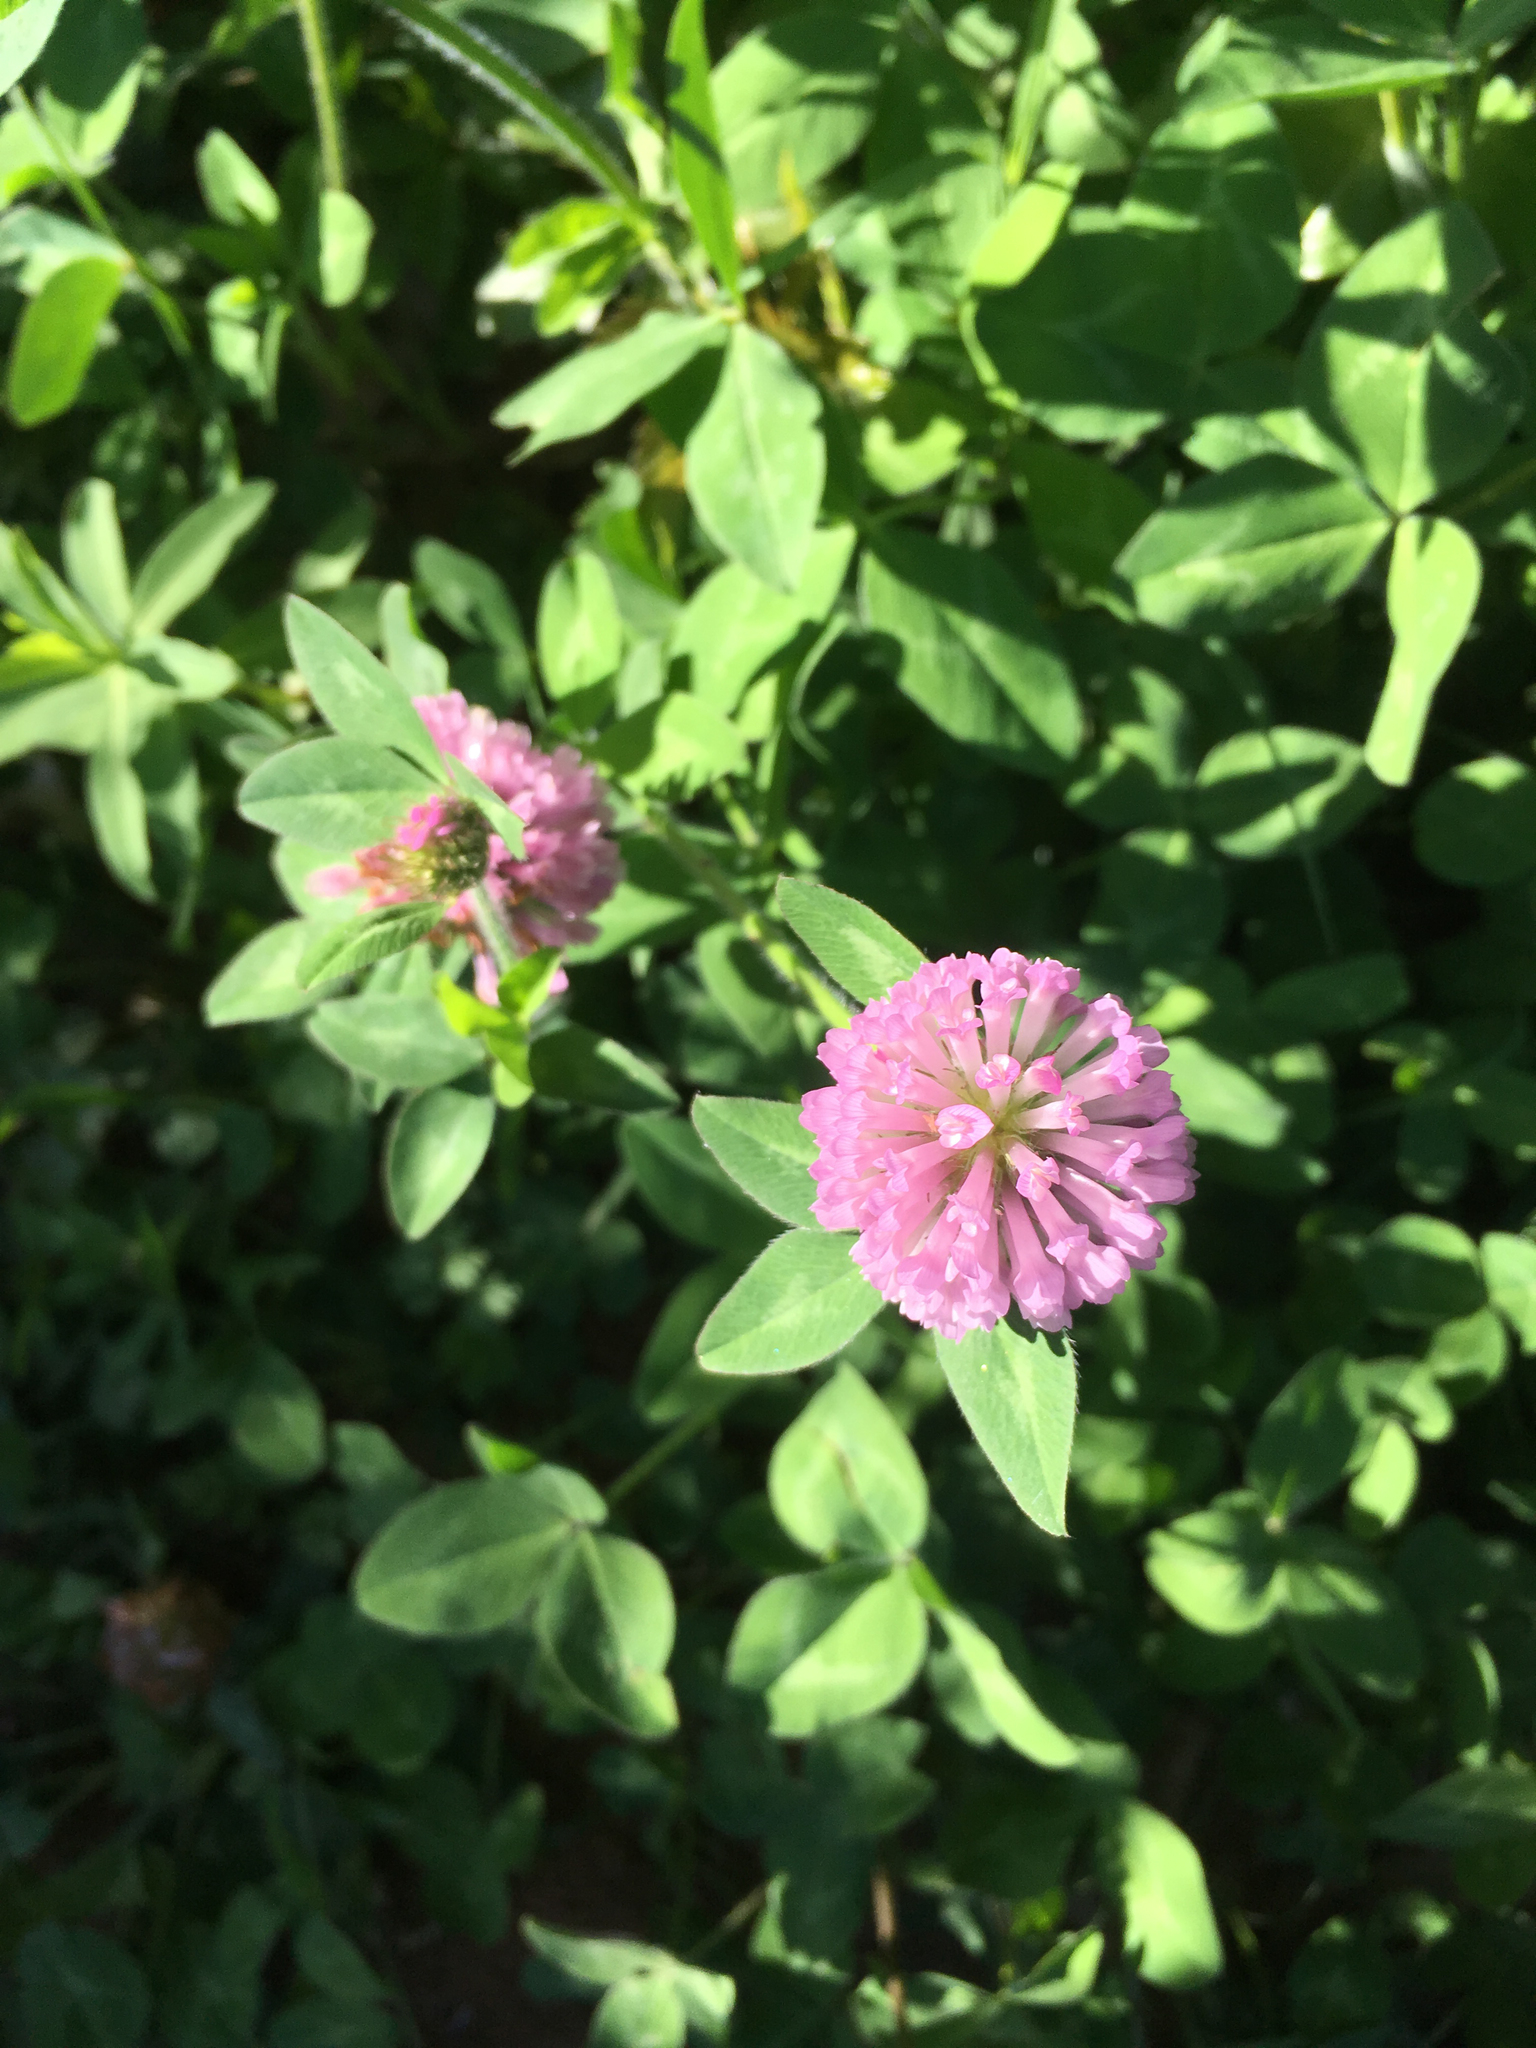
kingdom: Plantae
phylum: Tracheophyta
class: Magnoliopsida
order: Fabales
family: Fabaceae
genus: Trifolium
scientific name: Trifolium pratense
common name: Red clover
